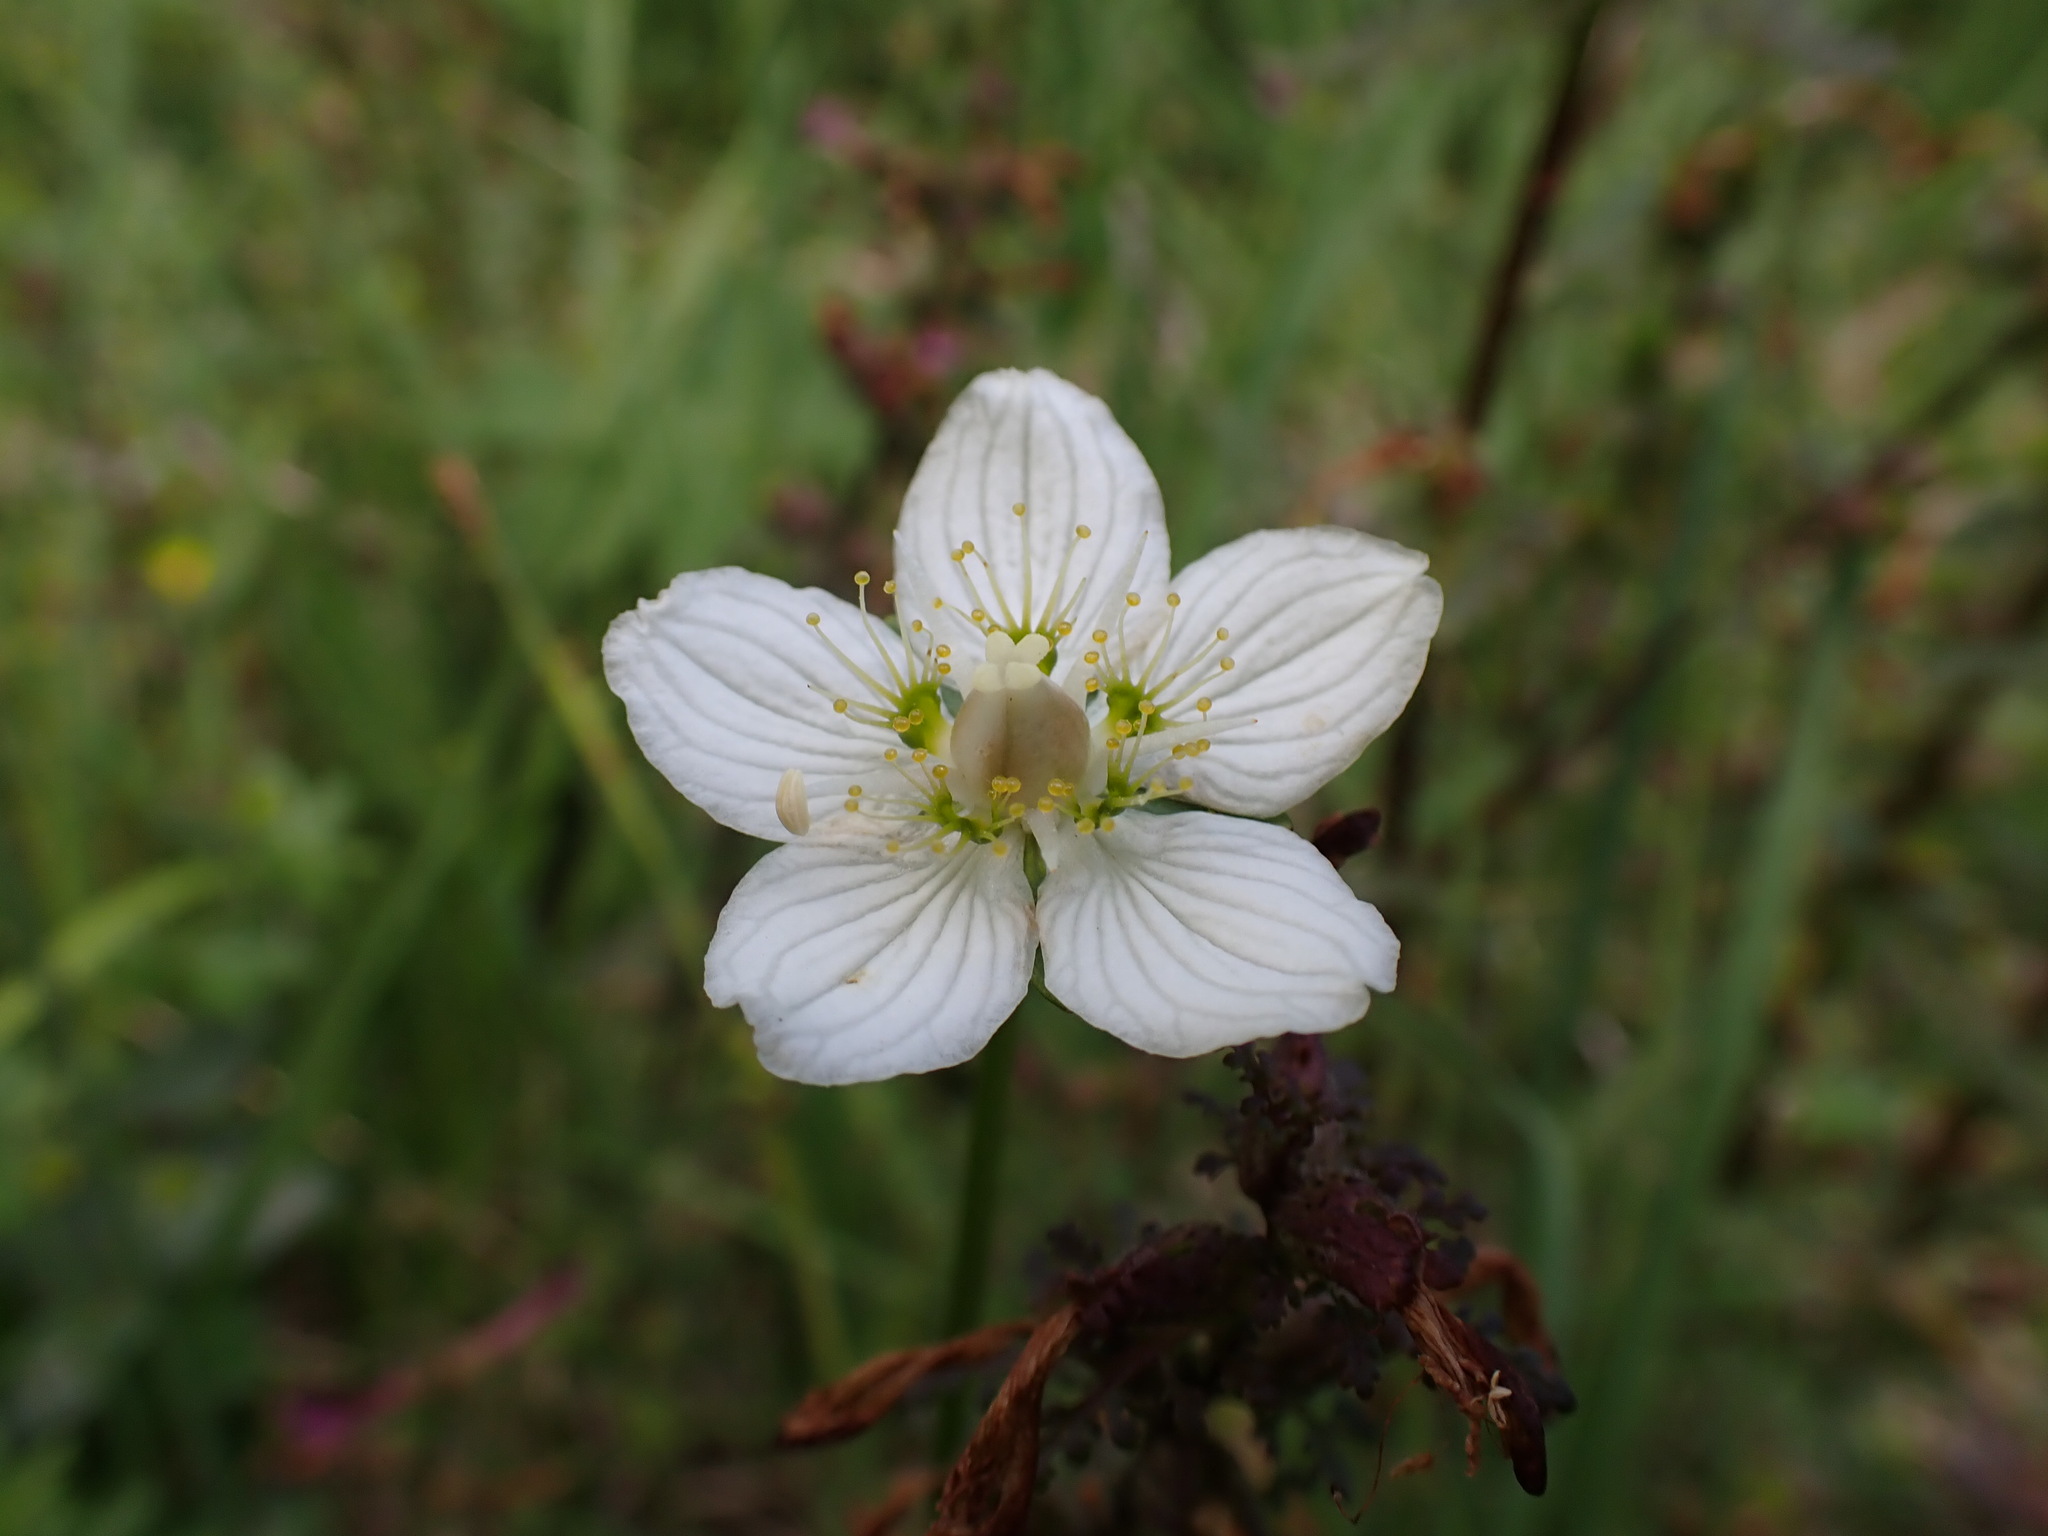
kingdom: Plantae
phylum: Tracheophyta
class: Magnoliopsida
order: Celastrales
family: Parnassiaceae
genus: Parnassia
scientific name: Parnassia palustris
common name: Grass-of-parnassus
